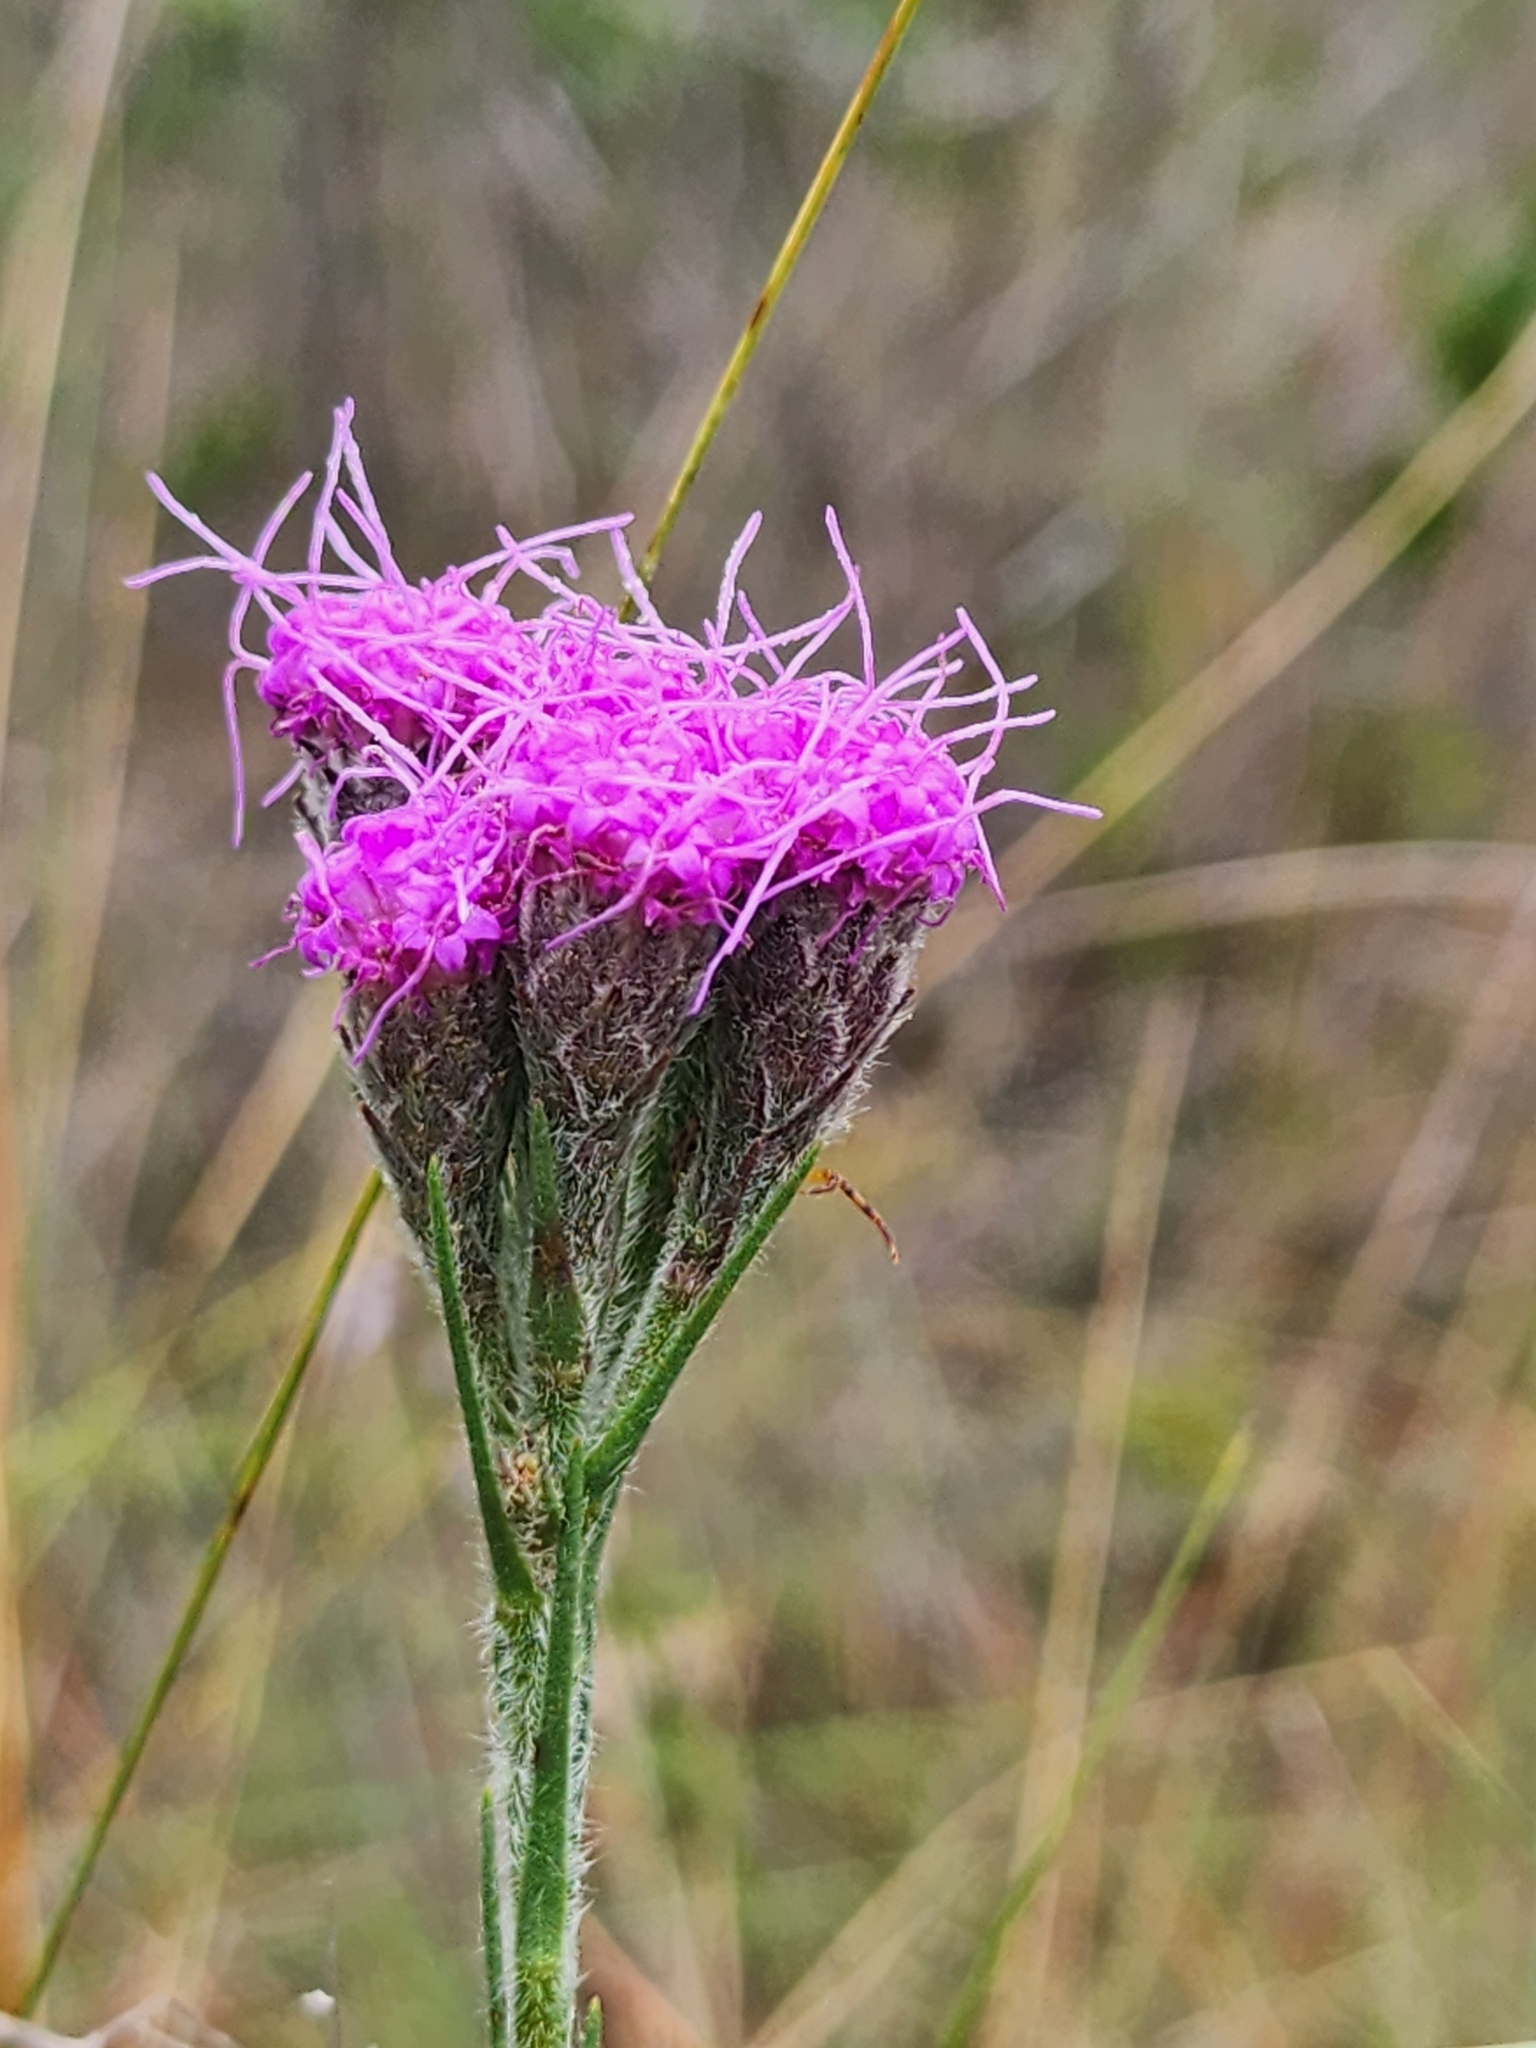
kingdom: Plantae
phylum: Tracheophyta
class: Magnoliopsida
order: Asterales
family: Asteraceae
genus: Carphephorus
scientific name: Carphephorus pseudoliatris
